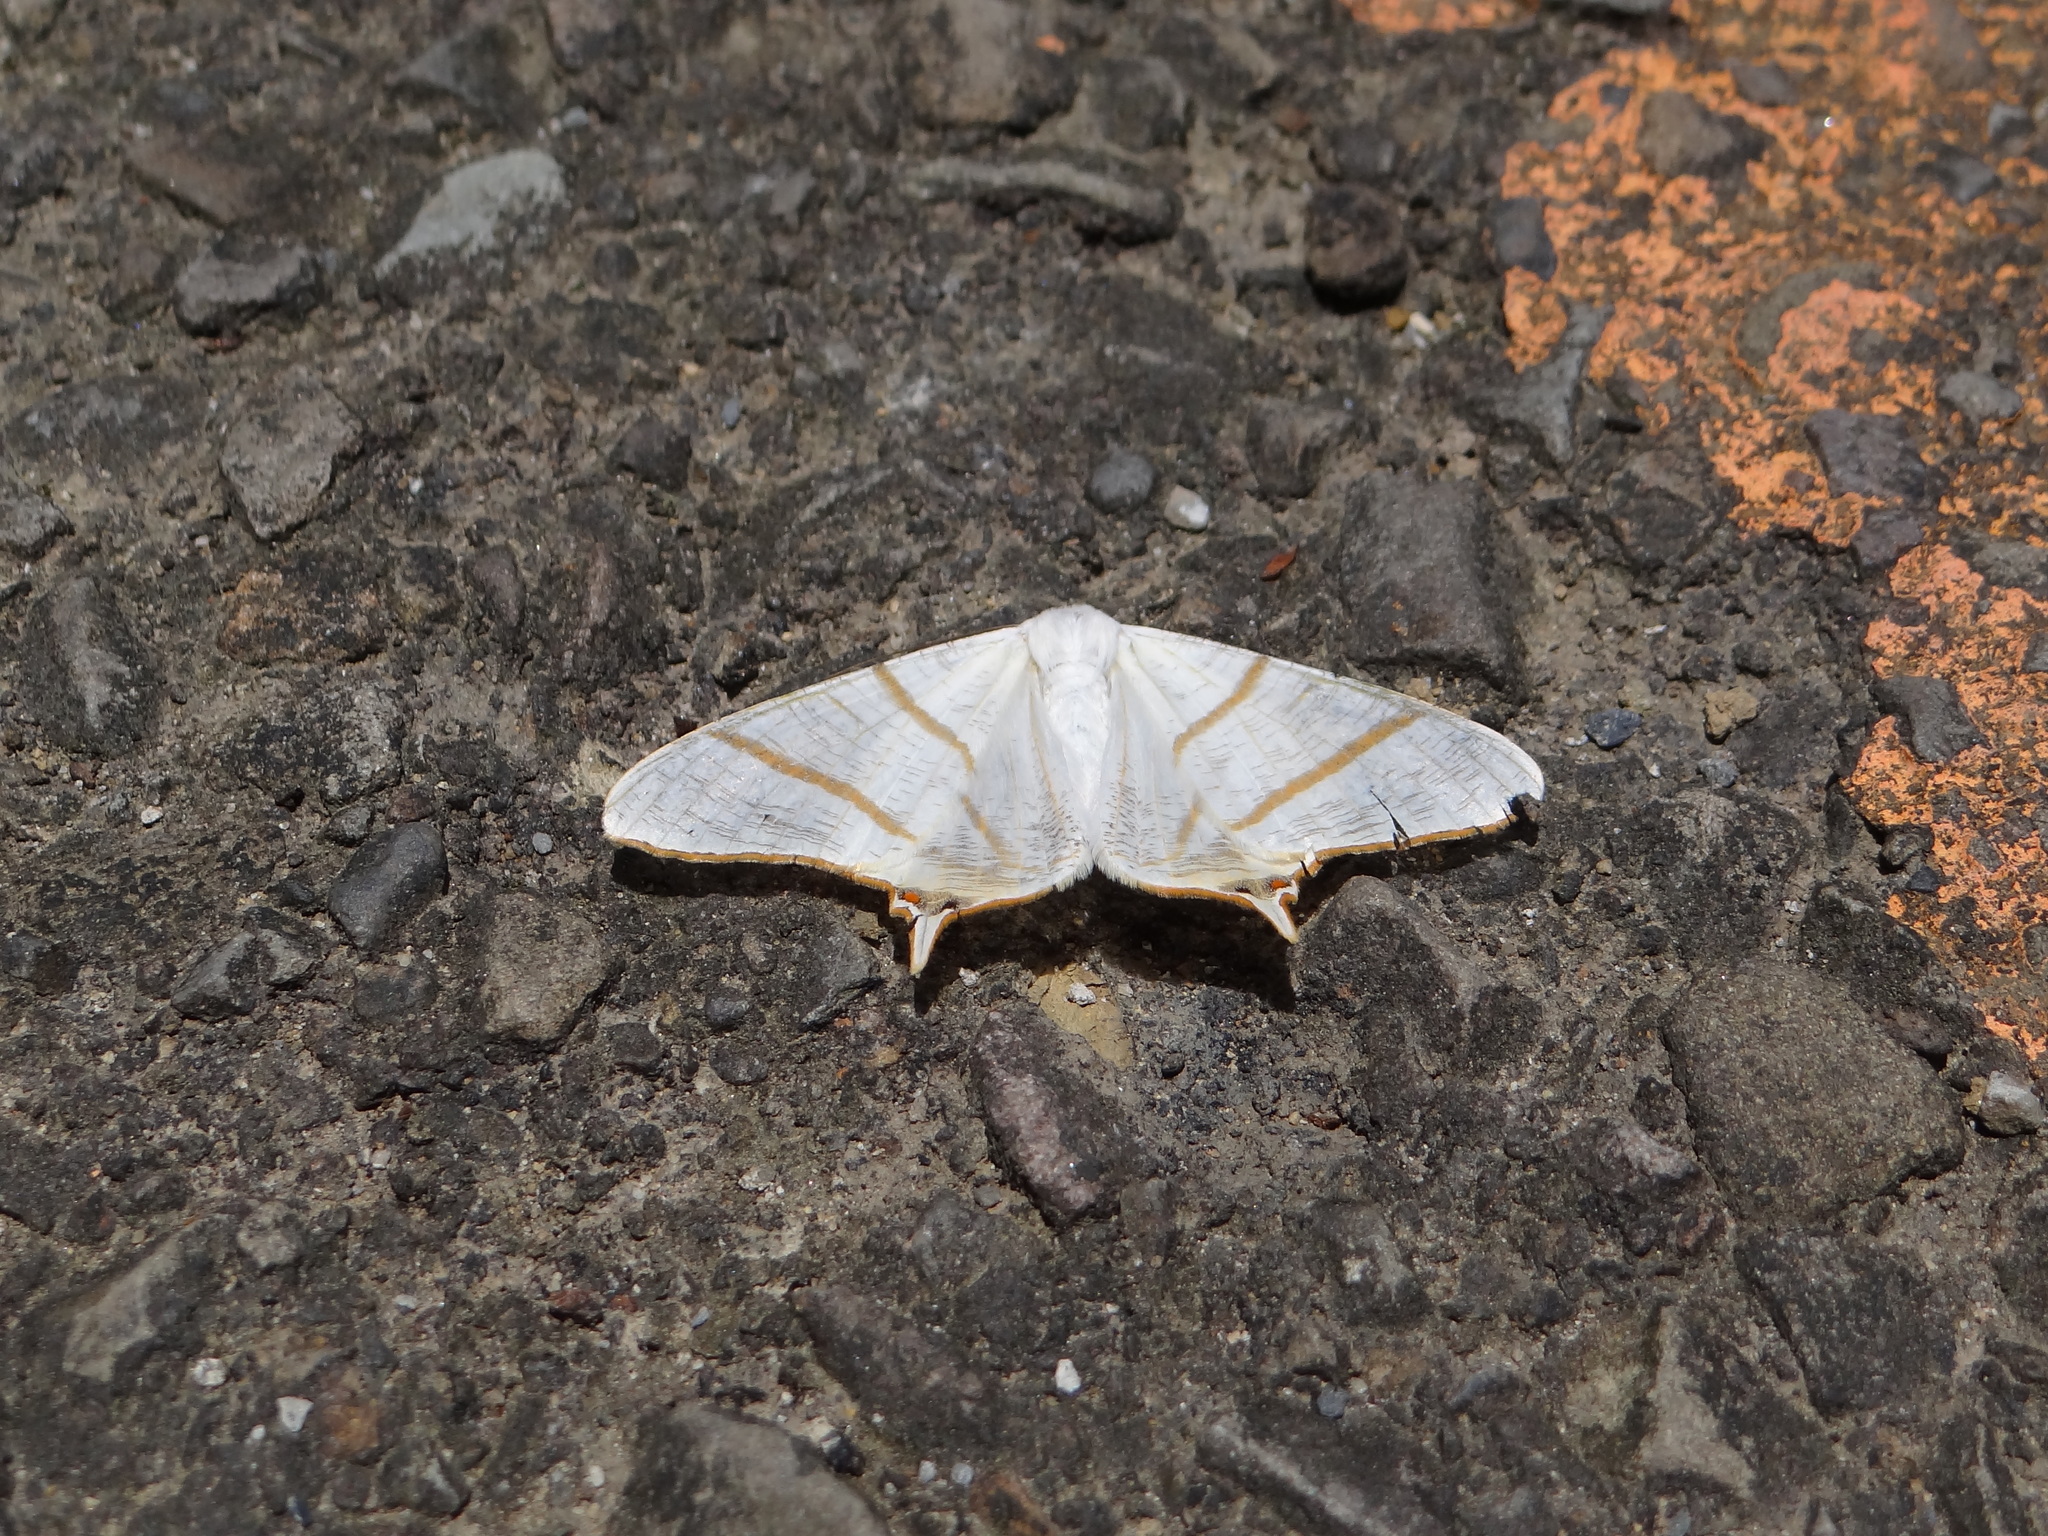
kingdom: Animalia
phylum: Arthropoda
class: Insecta
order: Lepidoptera
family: Geometridae
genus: Ourapteryx
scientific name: Ourapteryx changi
